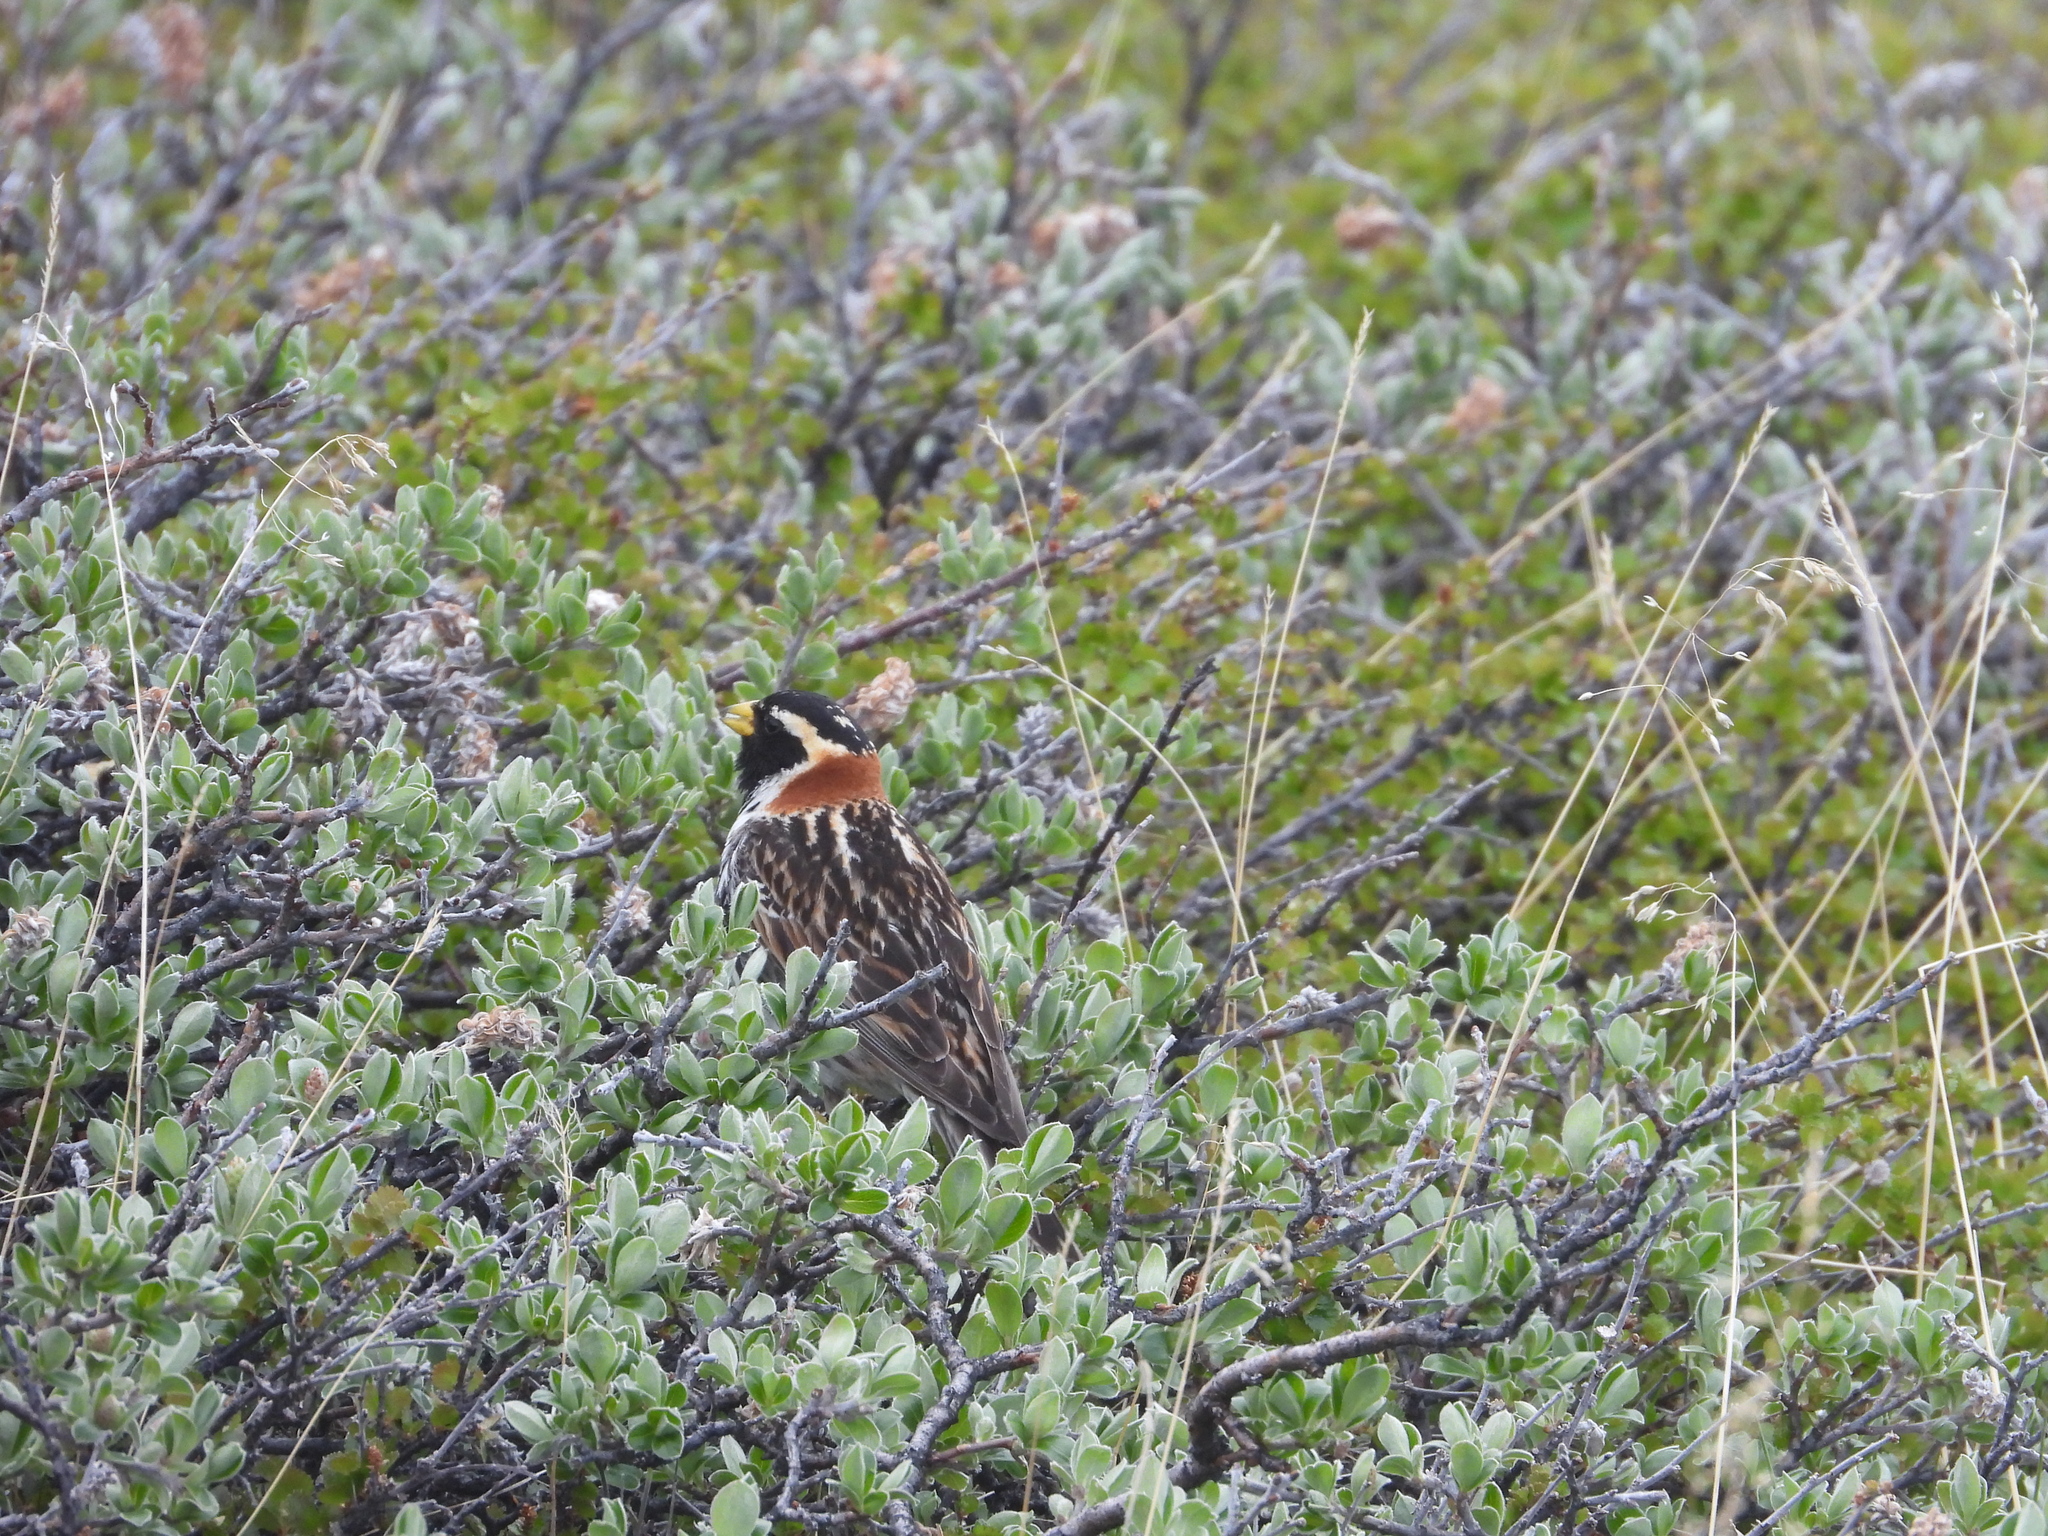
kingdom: Animalia
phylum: Chordata
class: Aves
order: Passeriformes
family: Calcariidae
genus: Calcarius
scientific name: Calcarius lapponicus
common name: Lapland longspur
